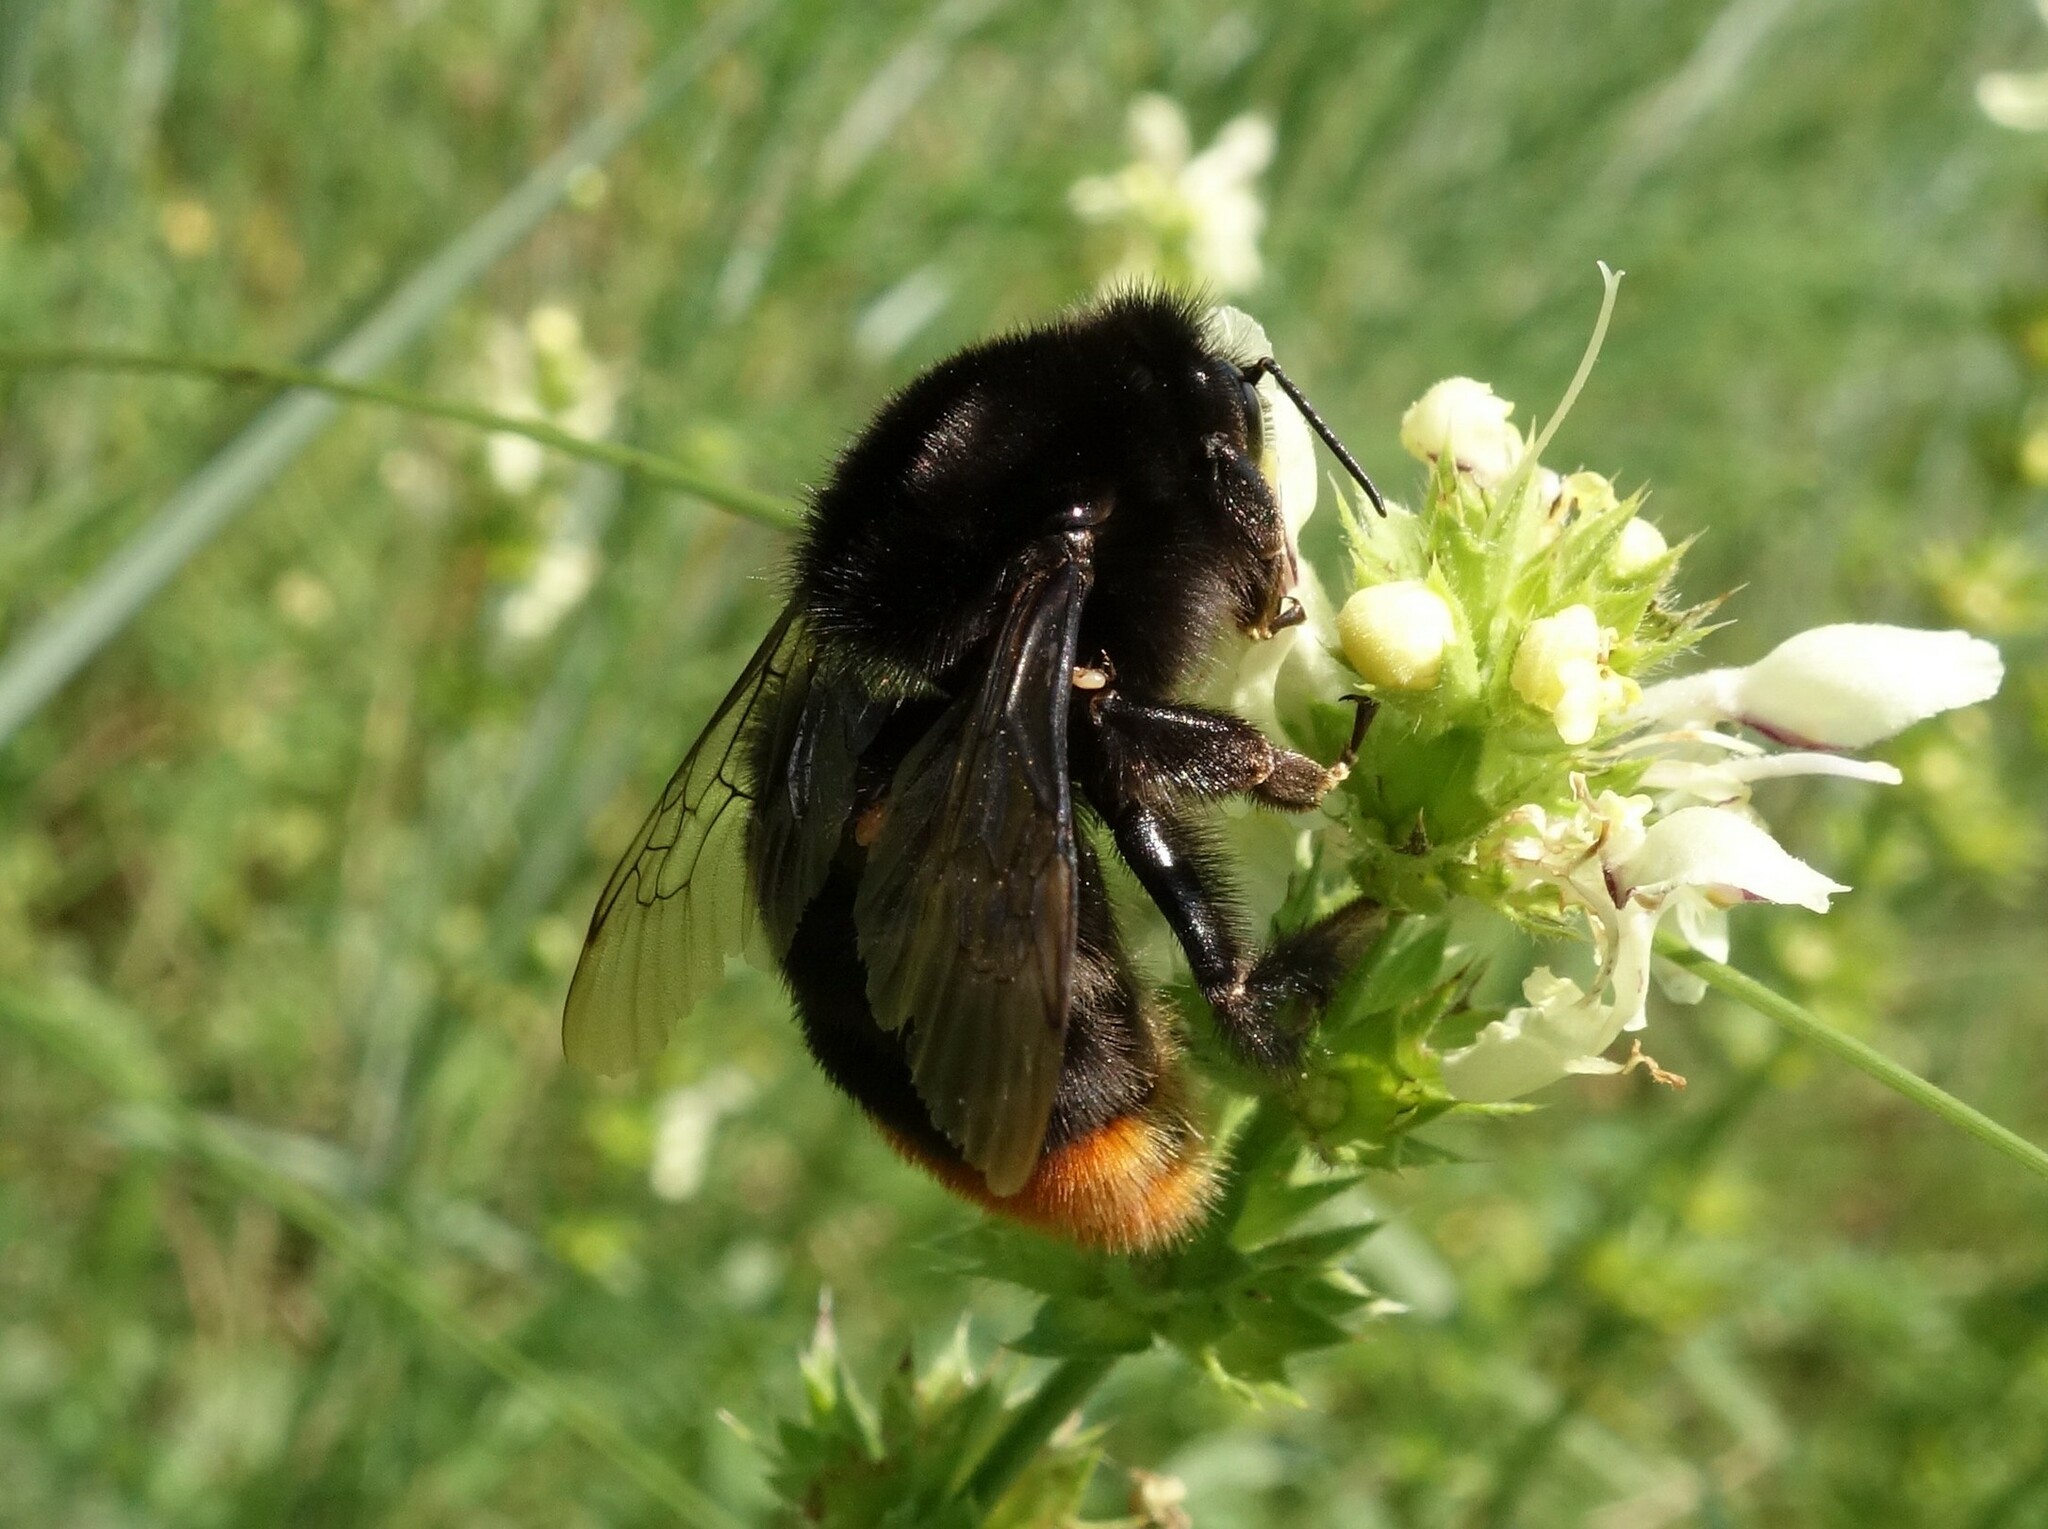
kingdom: Animalia
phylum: Arthropoda
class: Insecta
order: Hymenoptera
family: Apidae
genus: Bombus
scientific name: Bombus lapidarius
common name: Large red-tailed humble-bee
